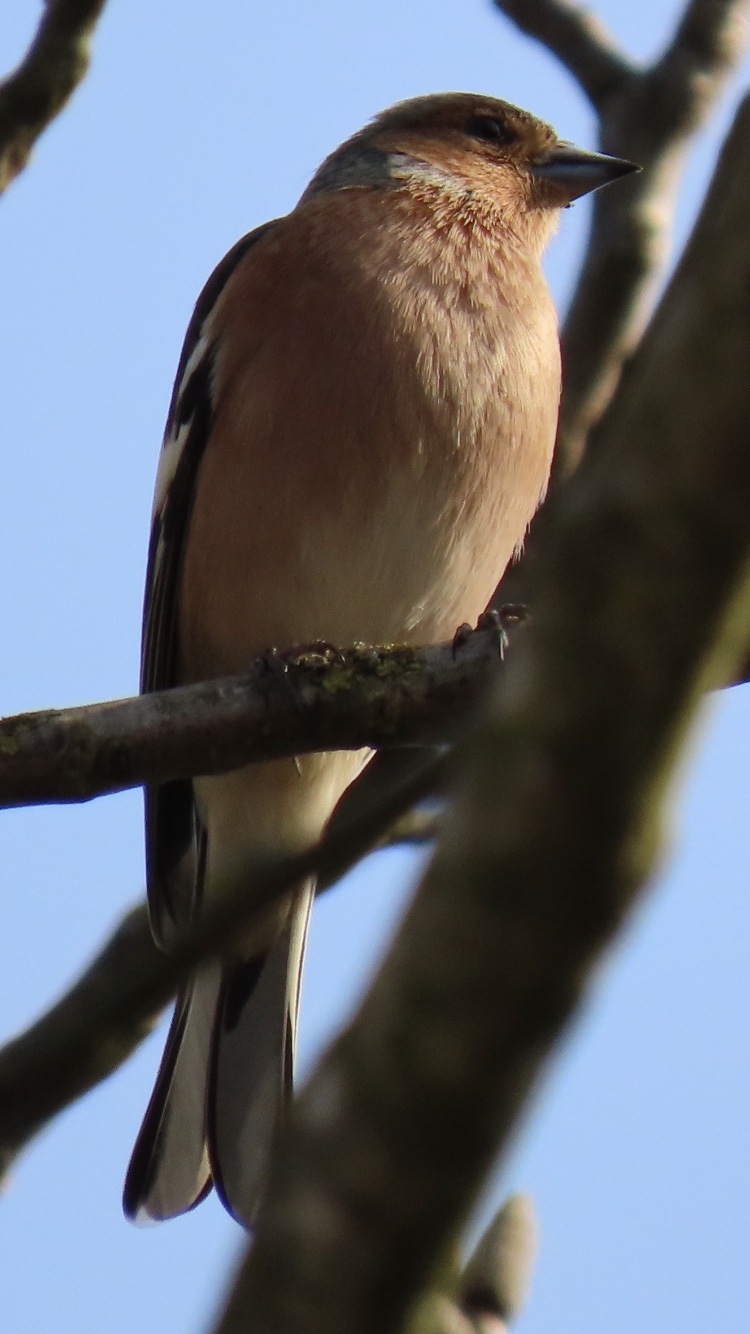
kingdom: Animalia
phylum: Chordata
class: Aves
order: Passeriformes
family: Fringillidae
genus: Fringilla
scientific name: Fringilla coelebs
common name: Common chaffinch
